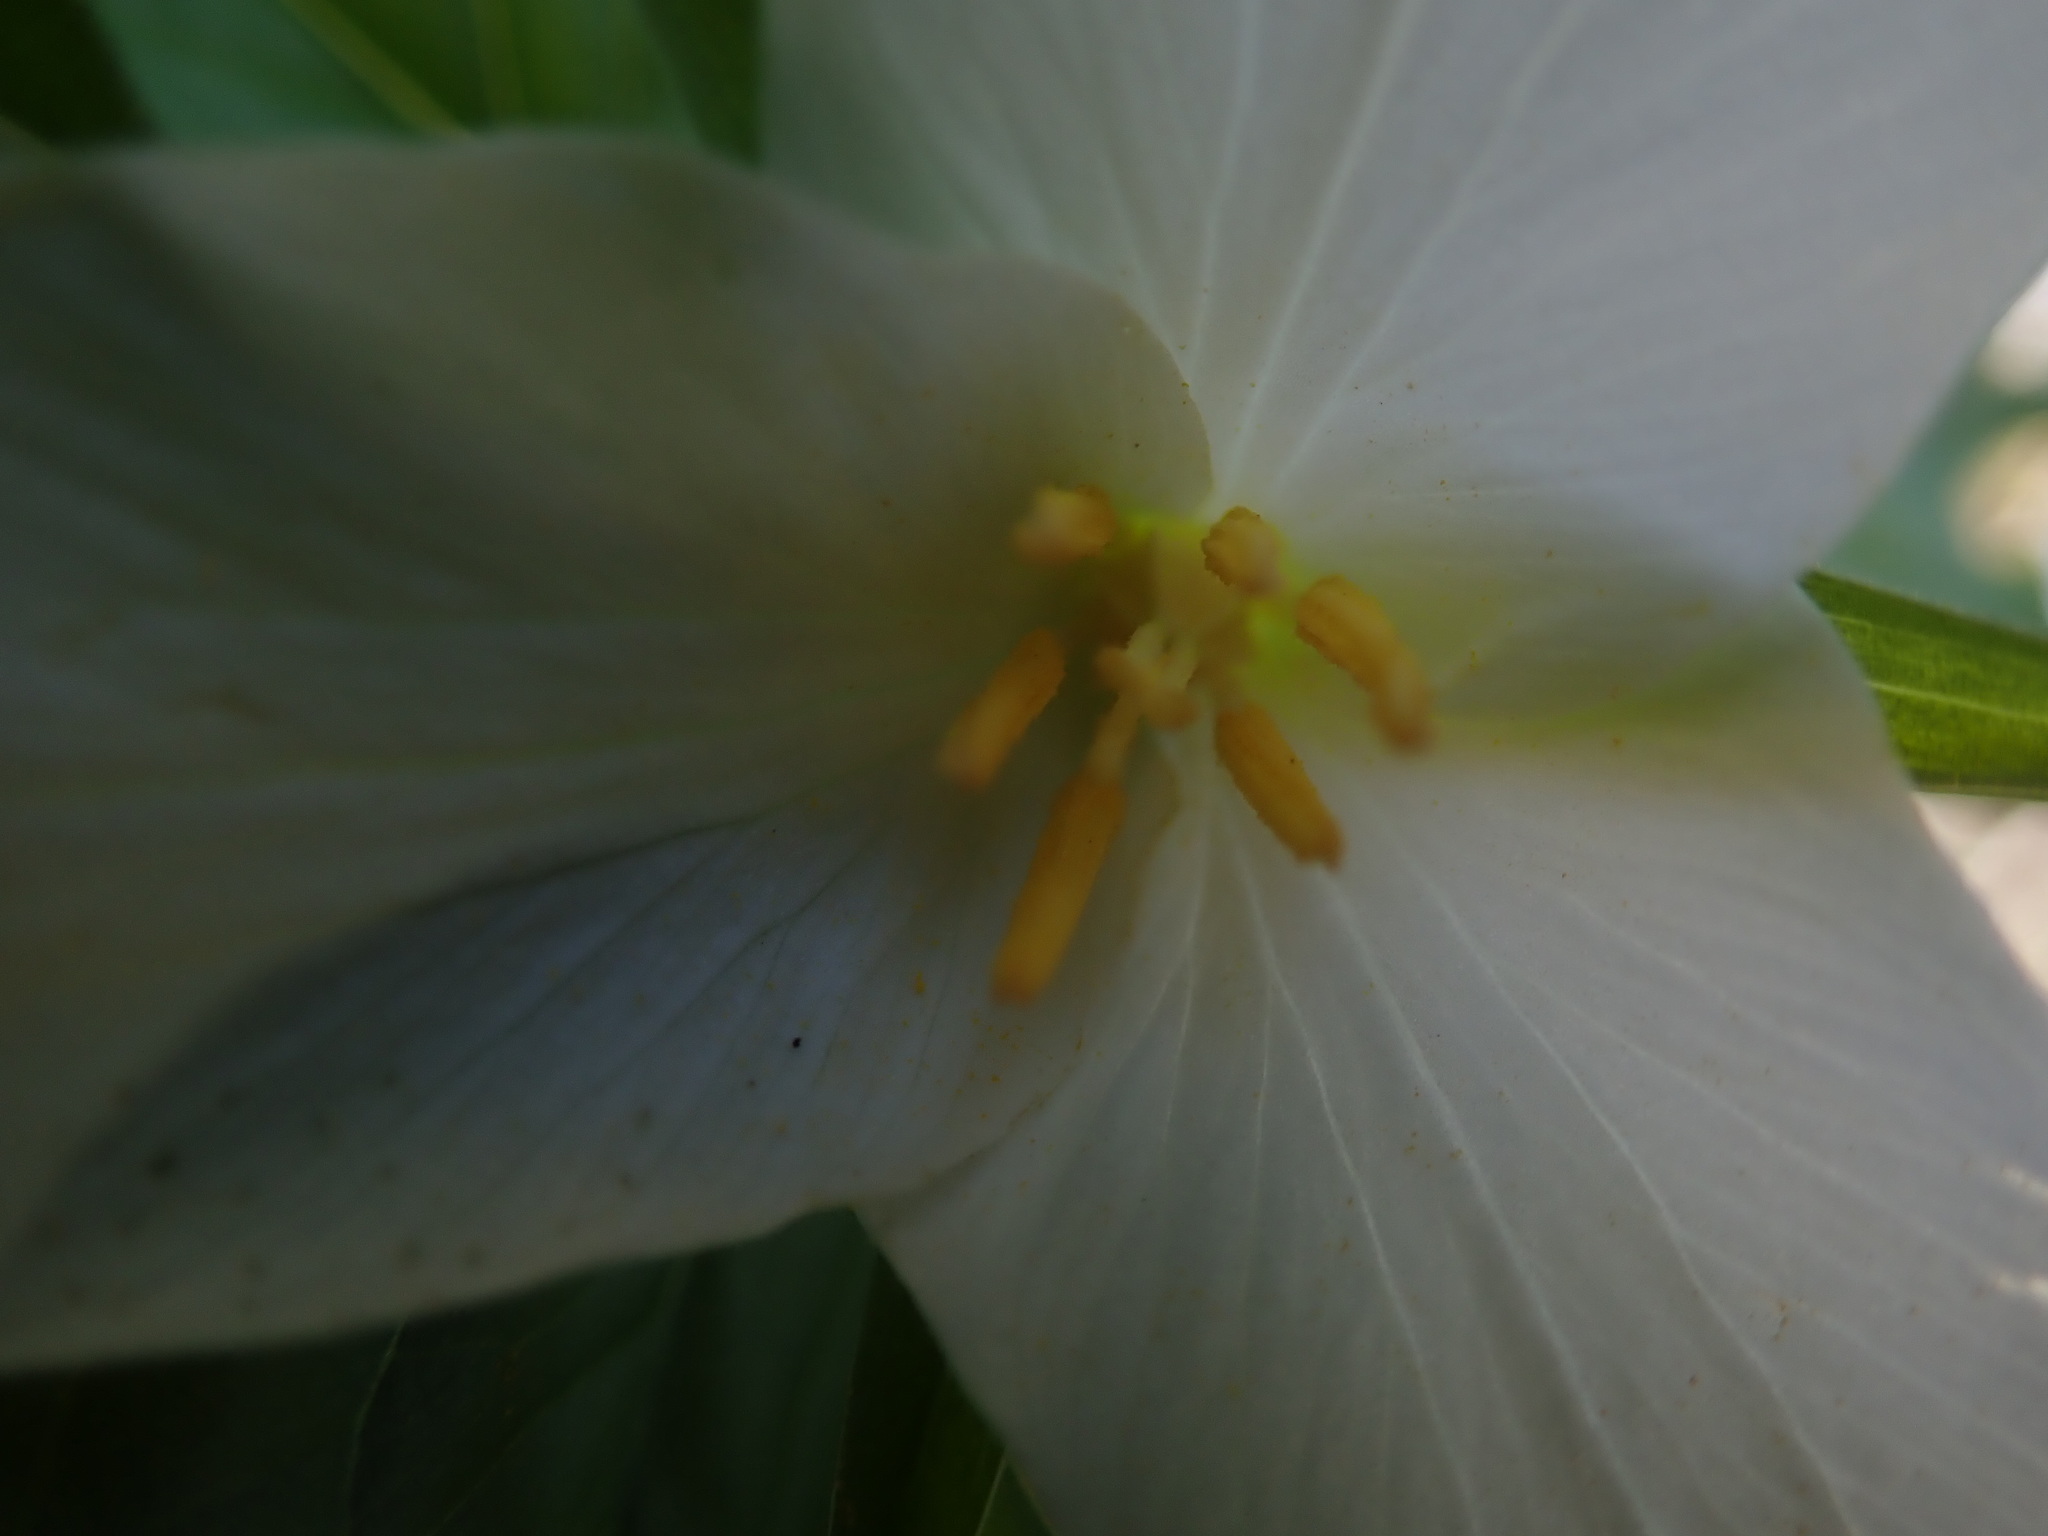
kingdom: Plantae
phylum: Tracheophyta
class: Liliopsida
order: Liliales
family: Melanthiaceae
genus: Trillium
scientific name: Trillium ovatum
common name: Pacific trillium
